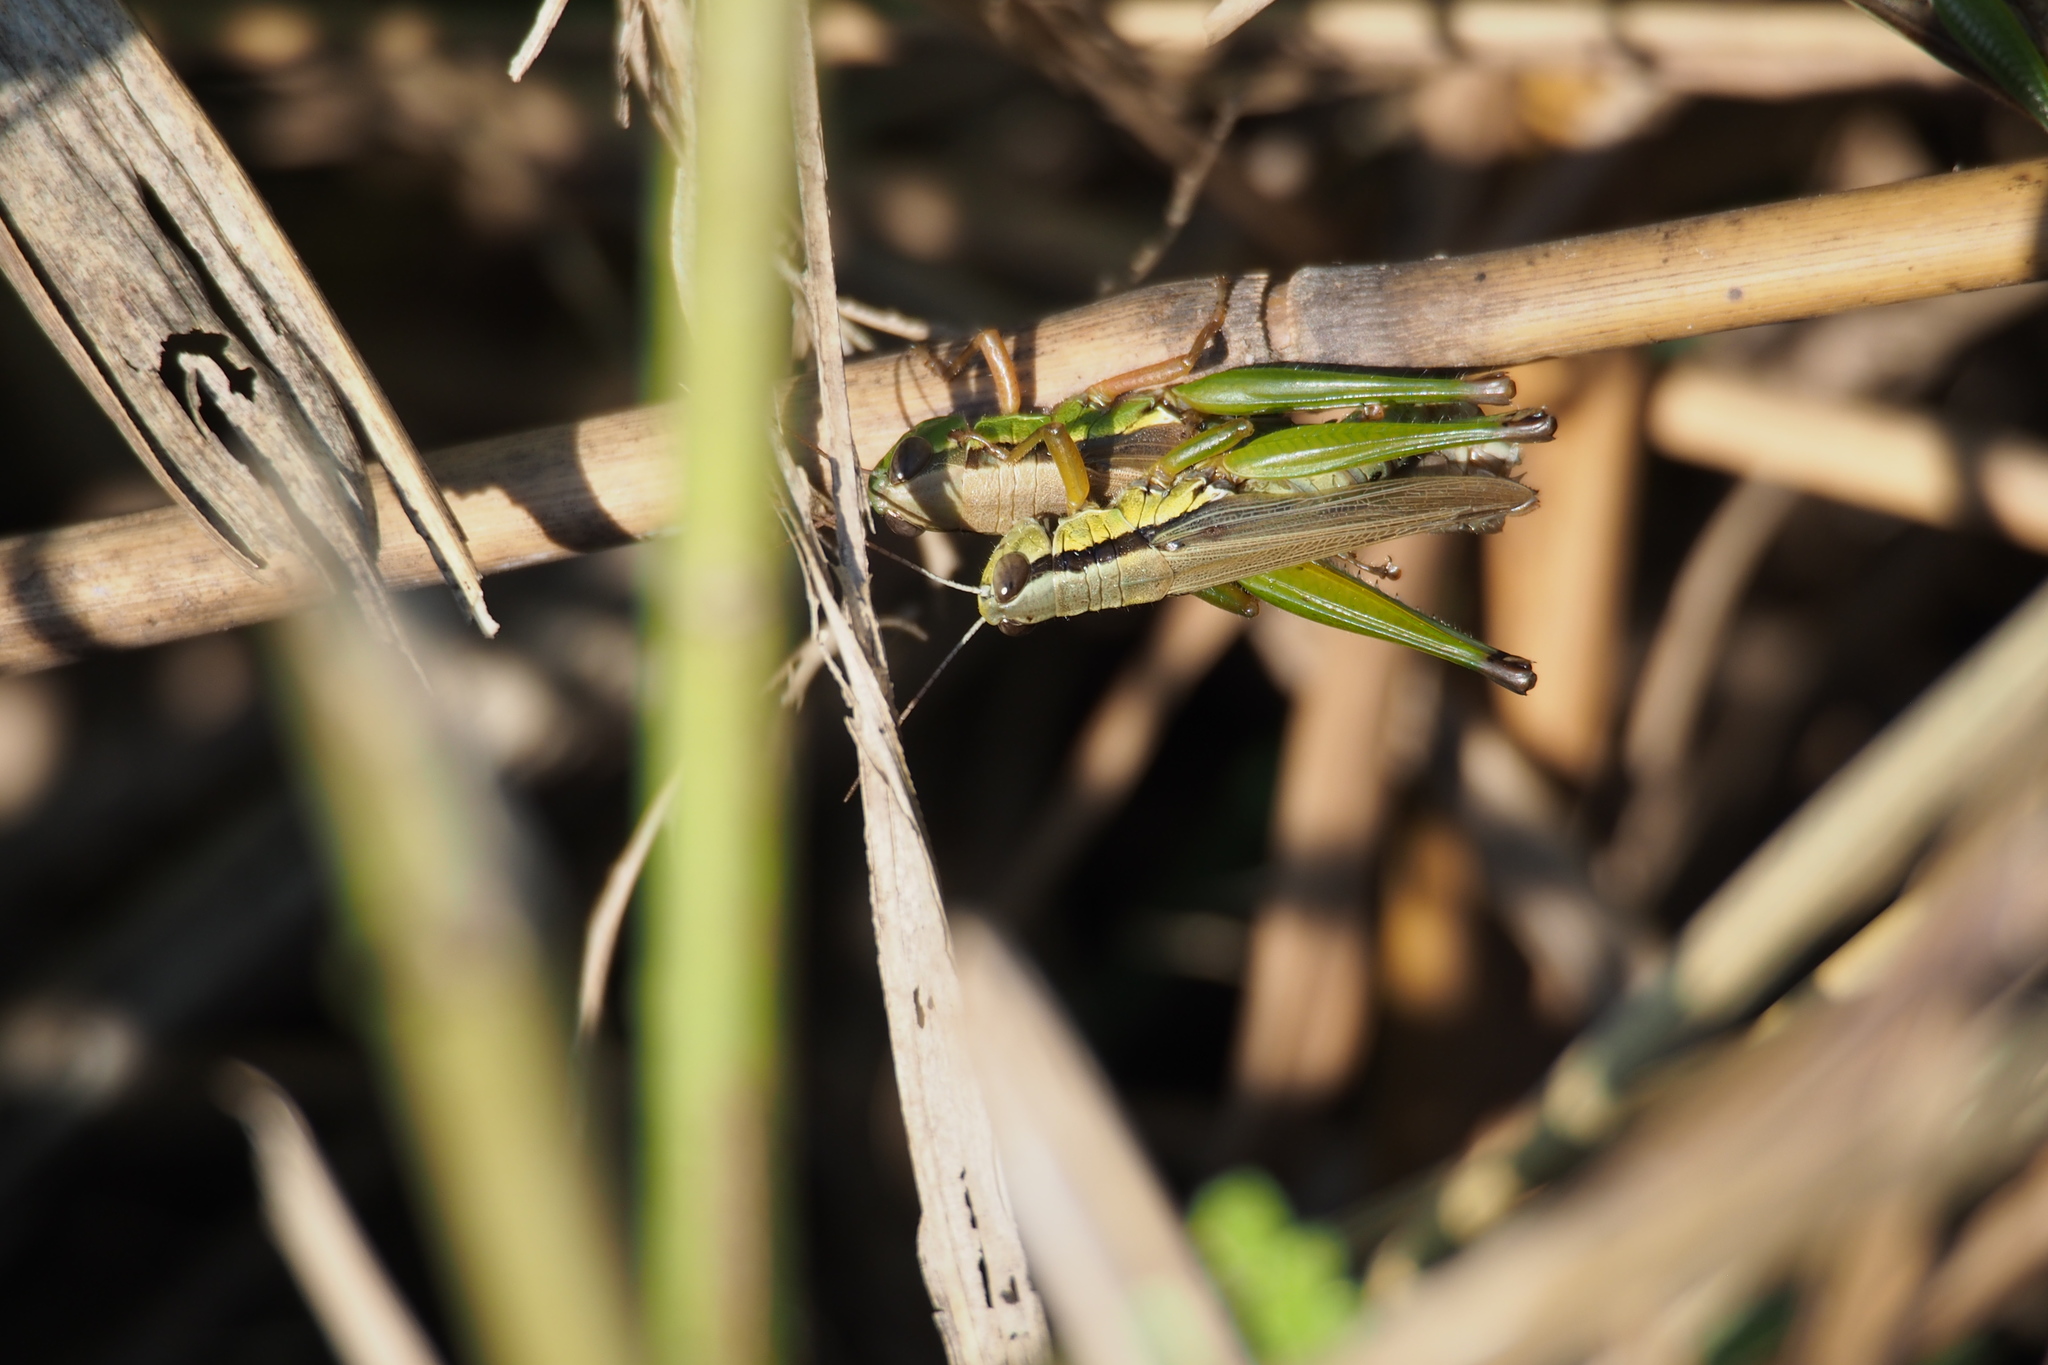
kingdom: Animalia
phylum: Arthropoda
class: Insecta
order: Orthoptera
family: Acrididae
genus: Oxya
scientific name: Oxya yezoensis
